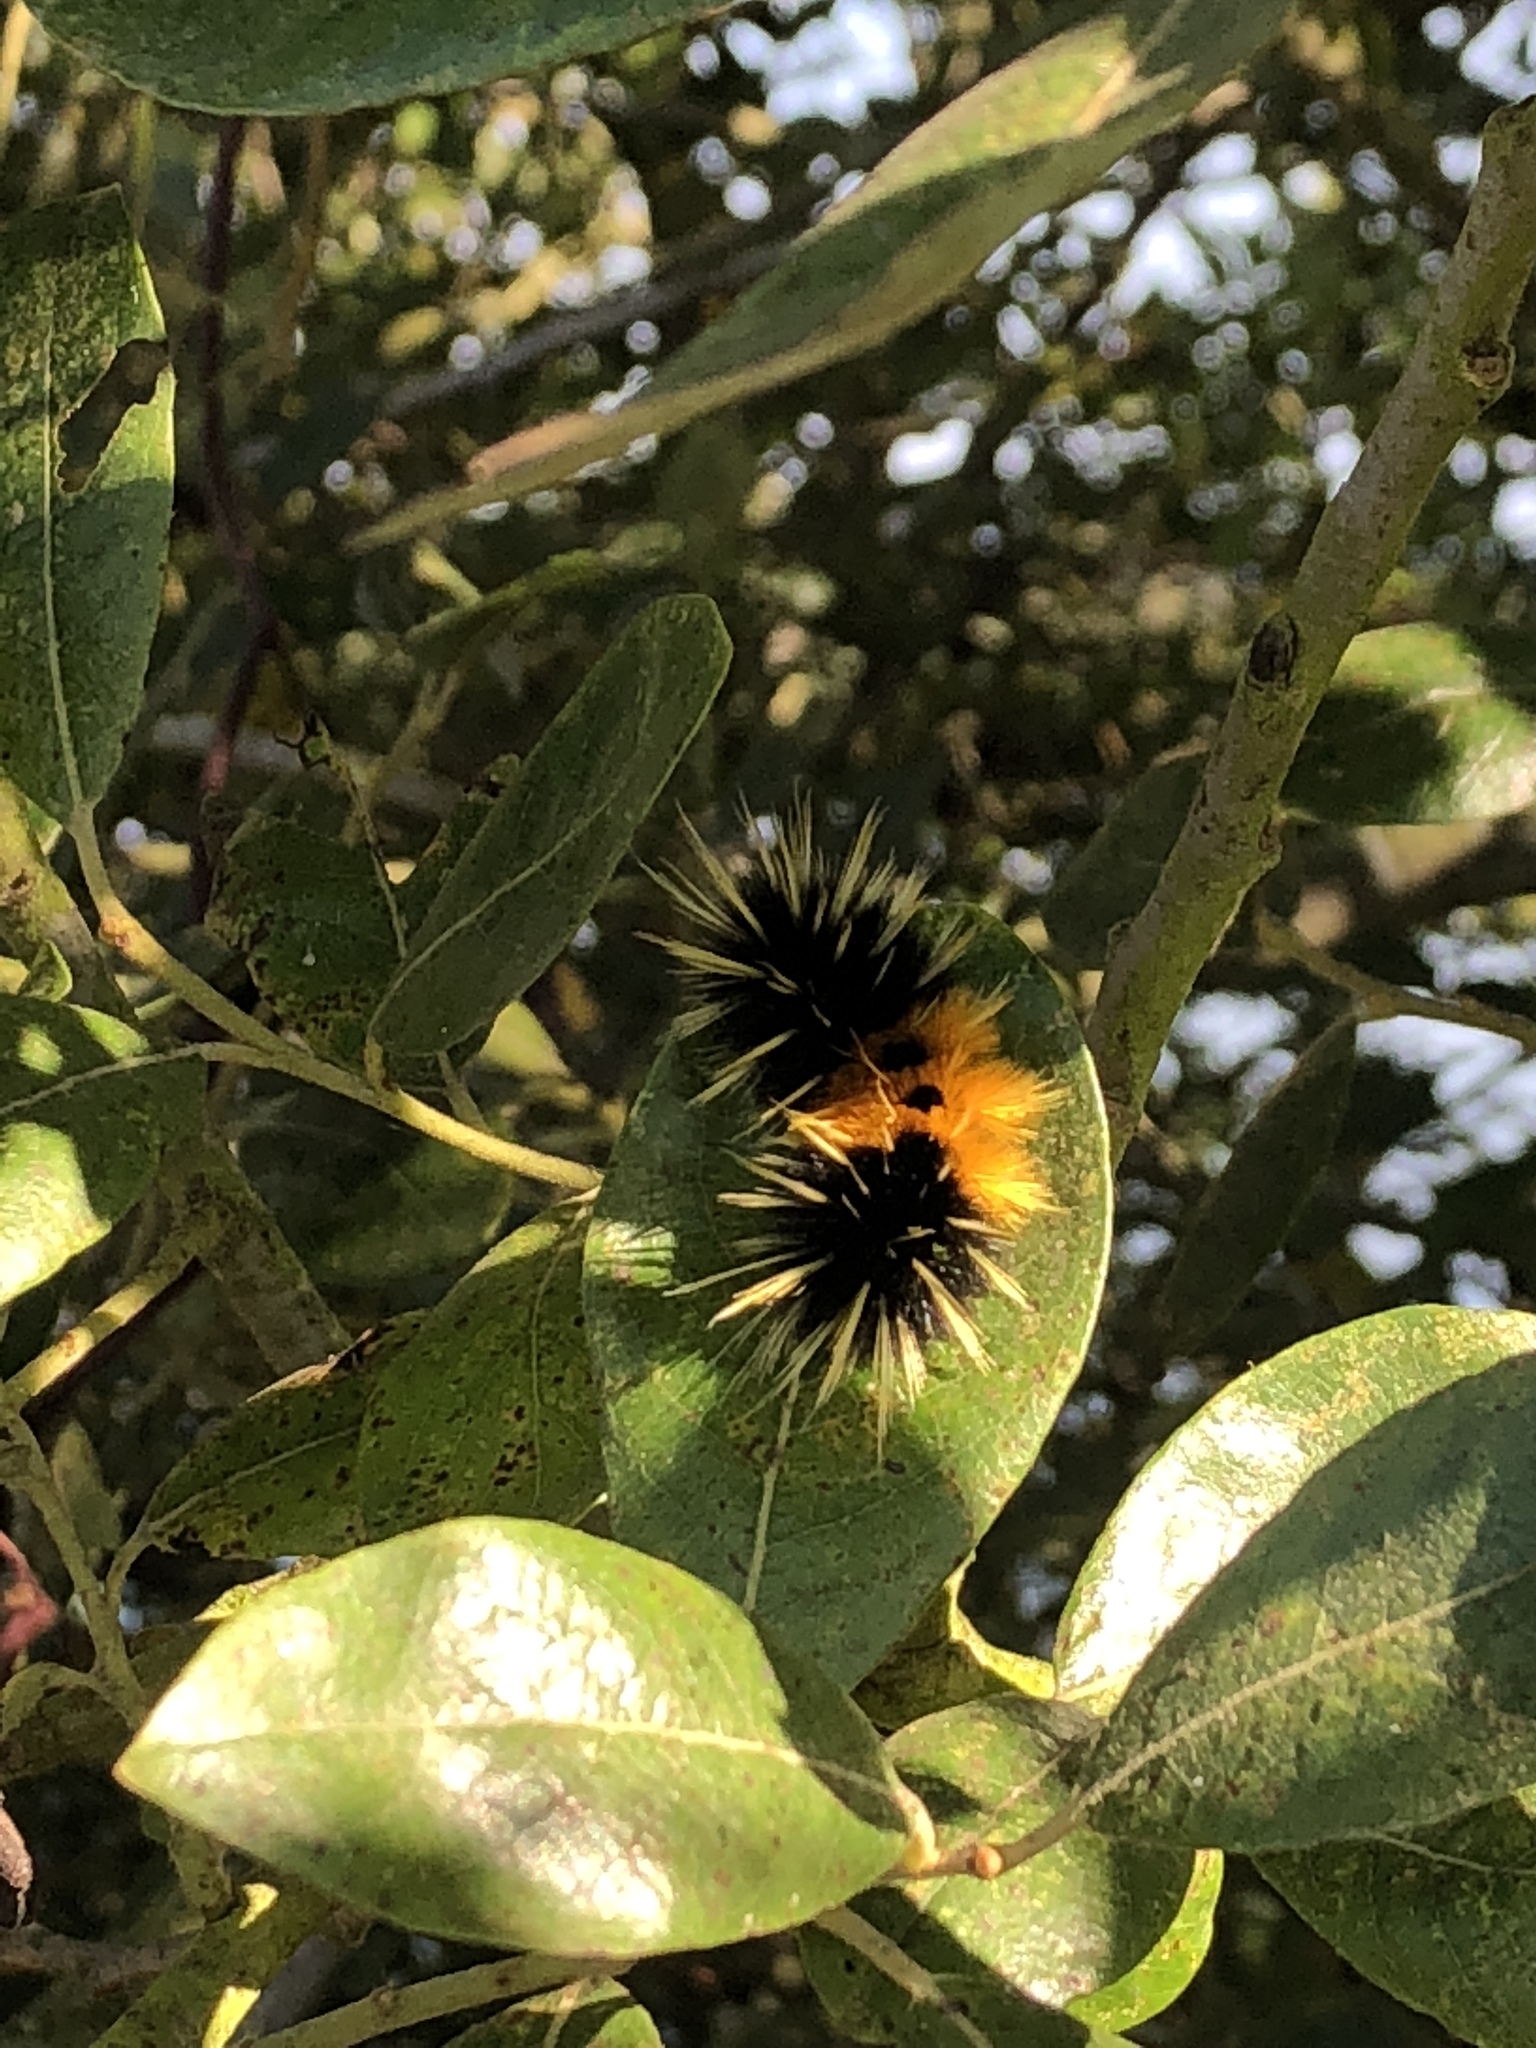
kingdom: Animalia
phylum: Arthropoda
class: Insecta
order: Lepidoptera
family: Erebidae
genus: Lophocampa
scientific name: Lophocampa maculata
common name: Spotted tussock moth
